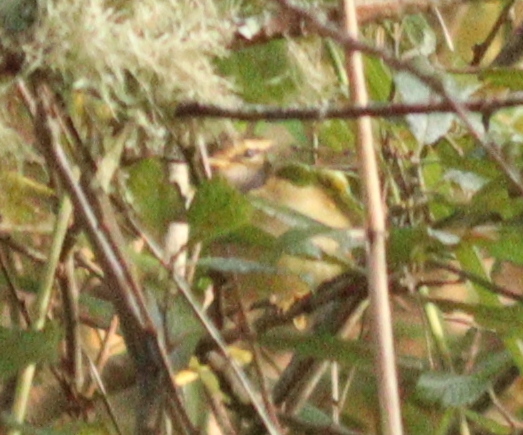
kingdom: Animalia
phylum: Chordata
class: Aves
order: Passeriformes
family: Phylloscopidae
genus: Phylloscopus
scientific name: Phylloscopus schwarzi
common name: Radde's warbler
